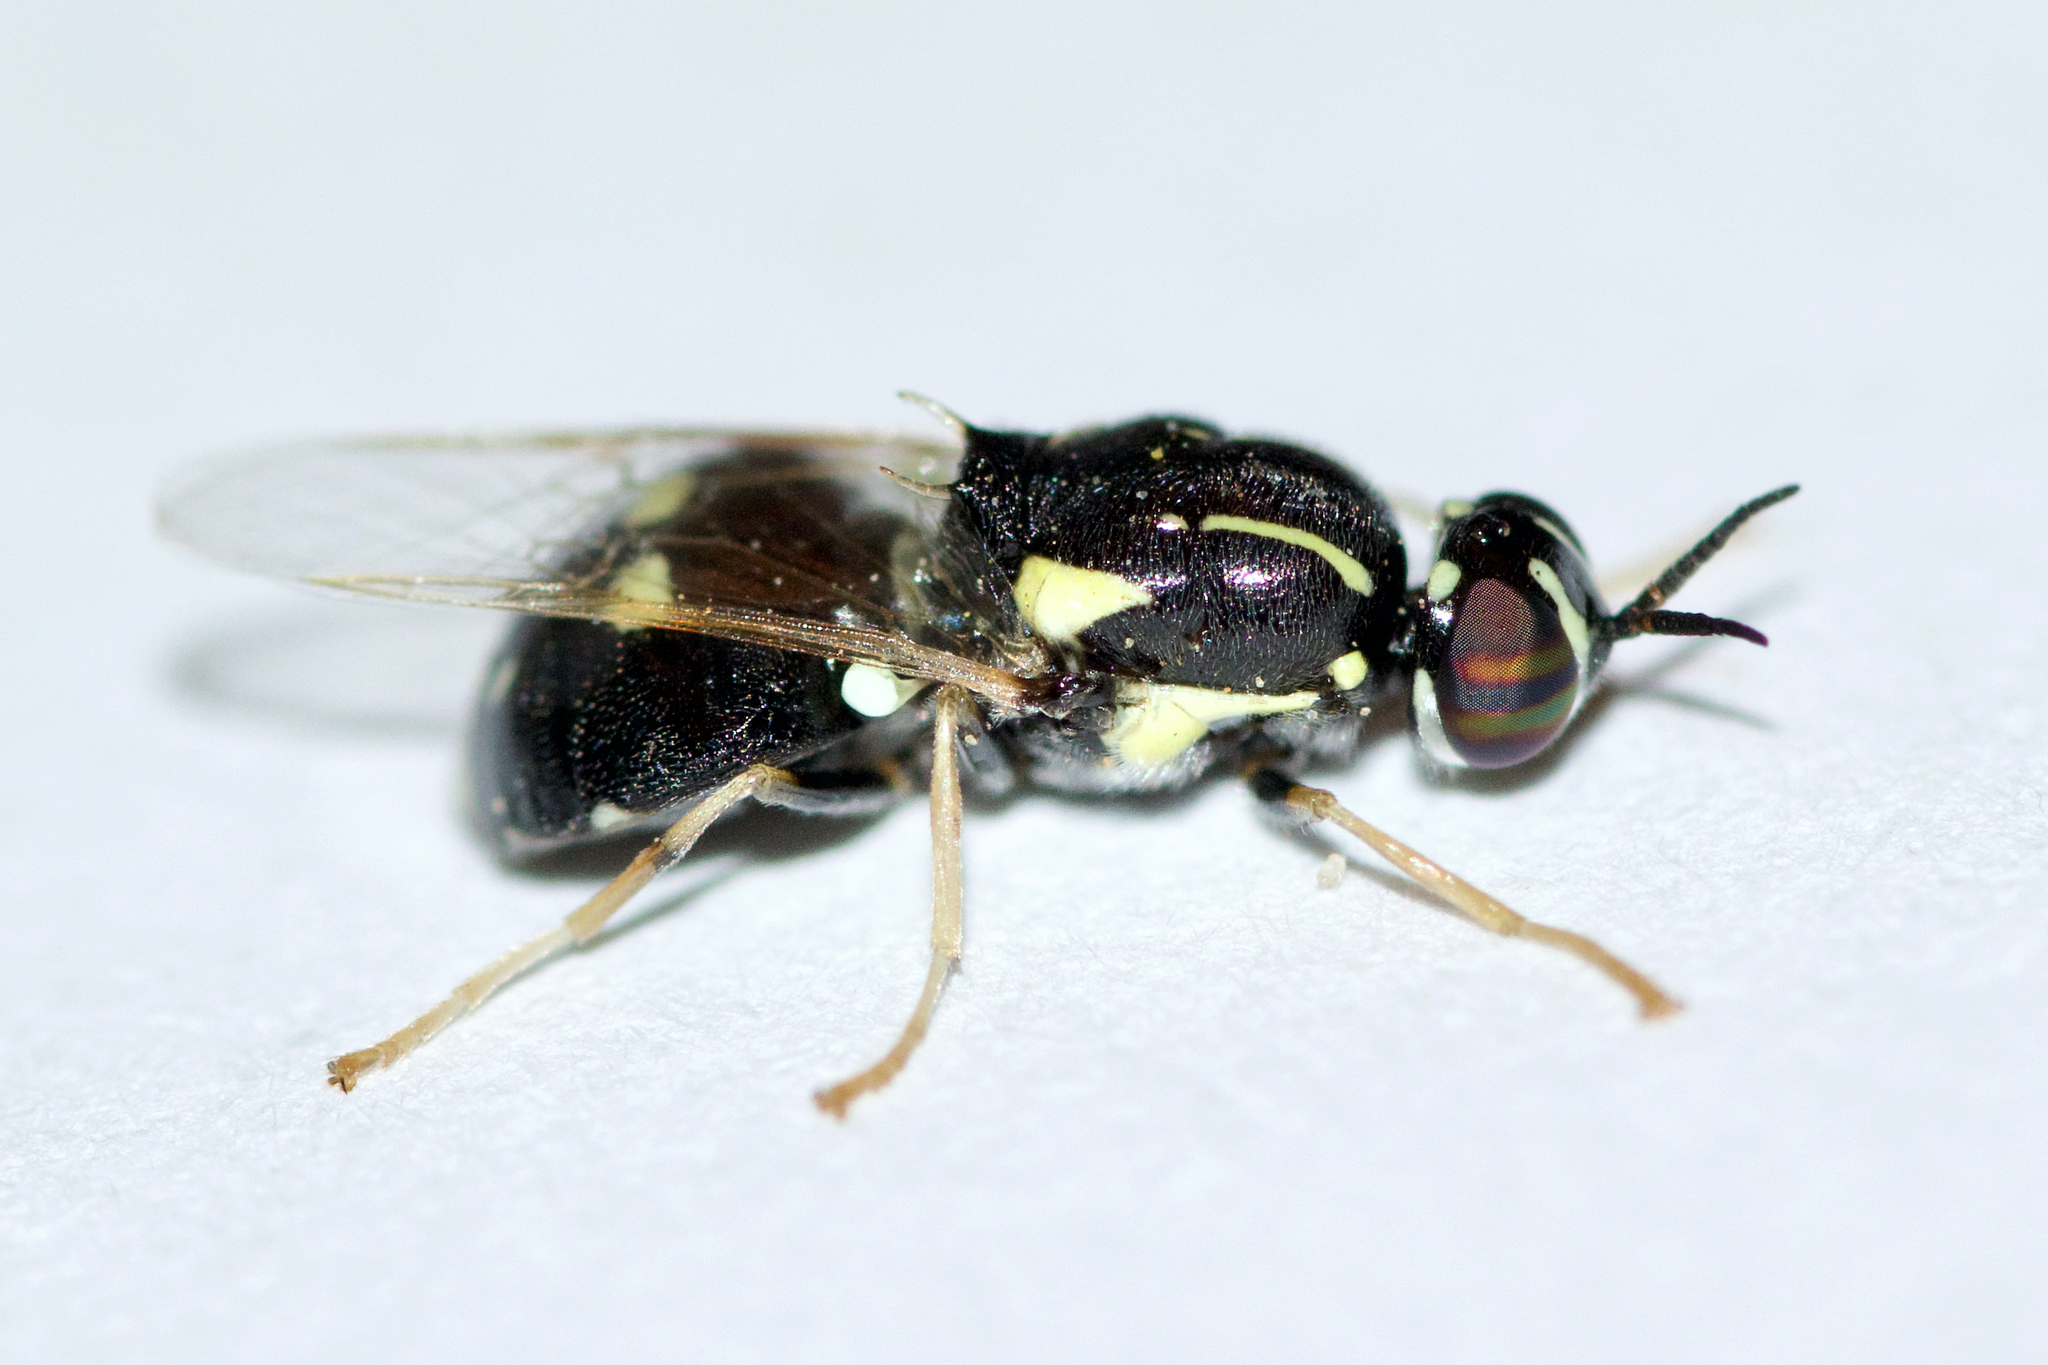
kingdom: Animalia
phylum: Arthropoda
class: Insecta
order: Diptera
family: Stratiomyidae
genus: Caloparyphus
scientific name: Caloparyphus tetraspilus
